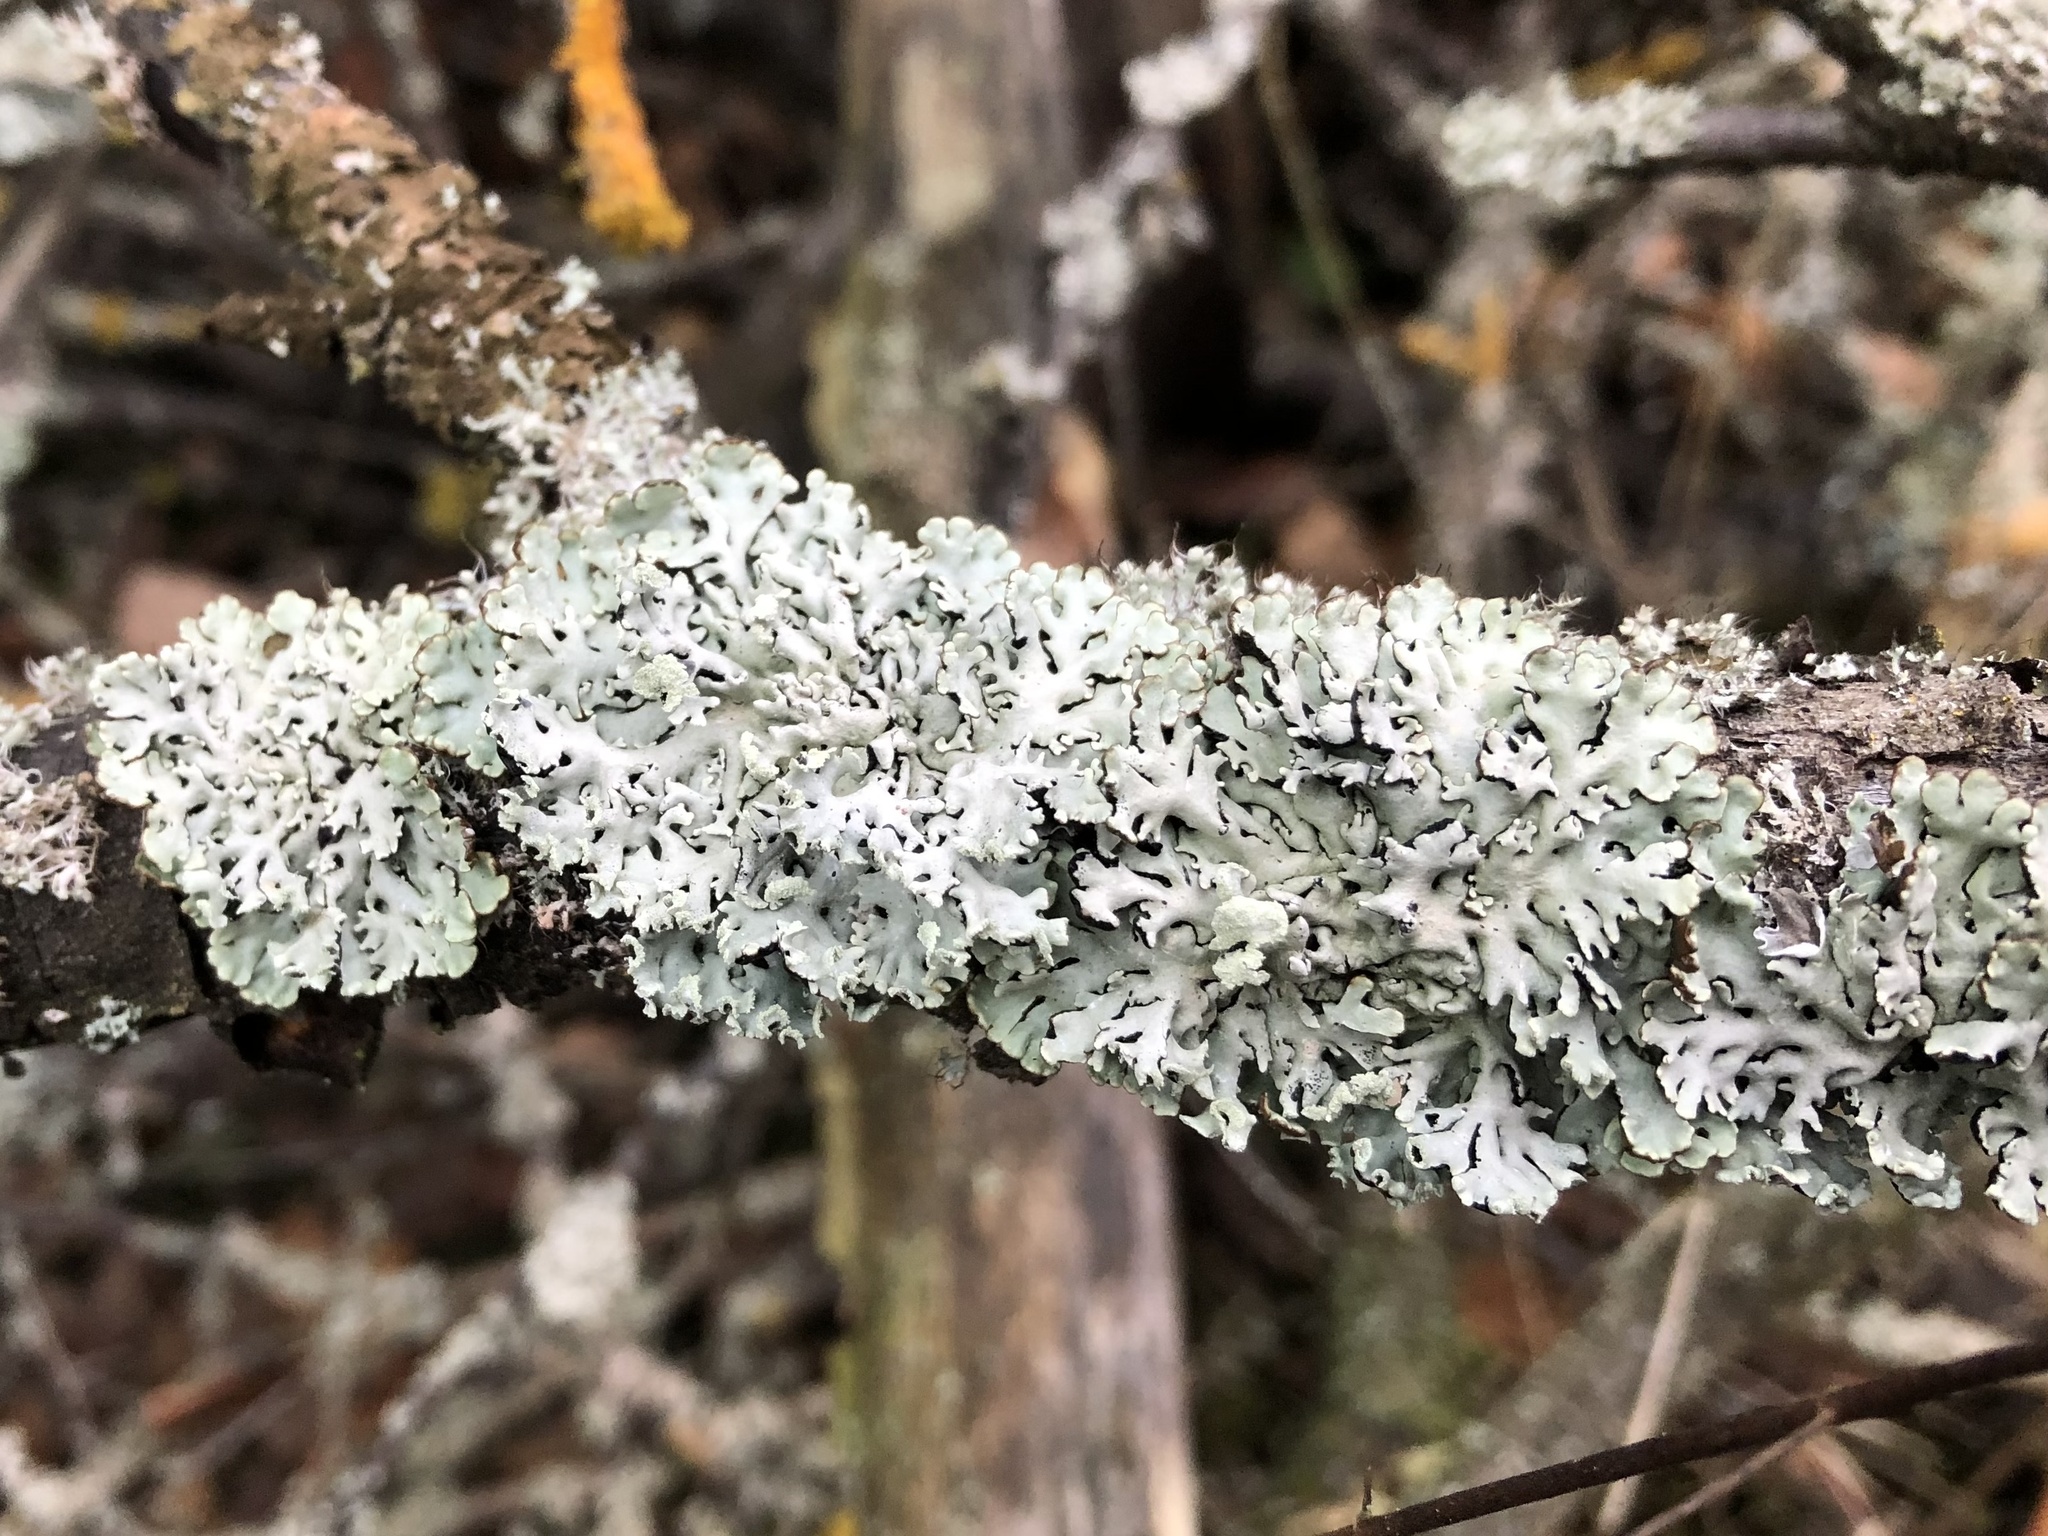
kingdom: Fungi
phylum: Ascomycota
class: Lecanoromycetes
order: Lecanorales
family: Parmeliaceae
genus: Hypogymnia
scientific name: Hypogymnia physodes
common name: Dark crottle
